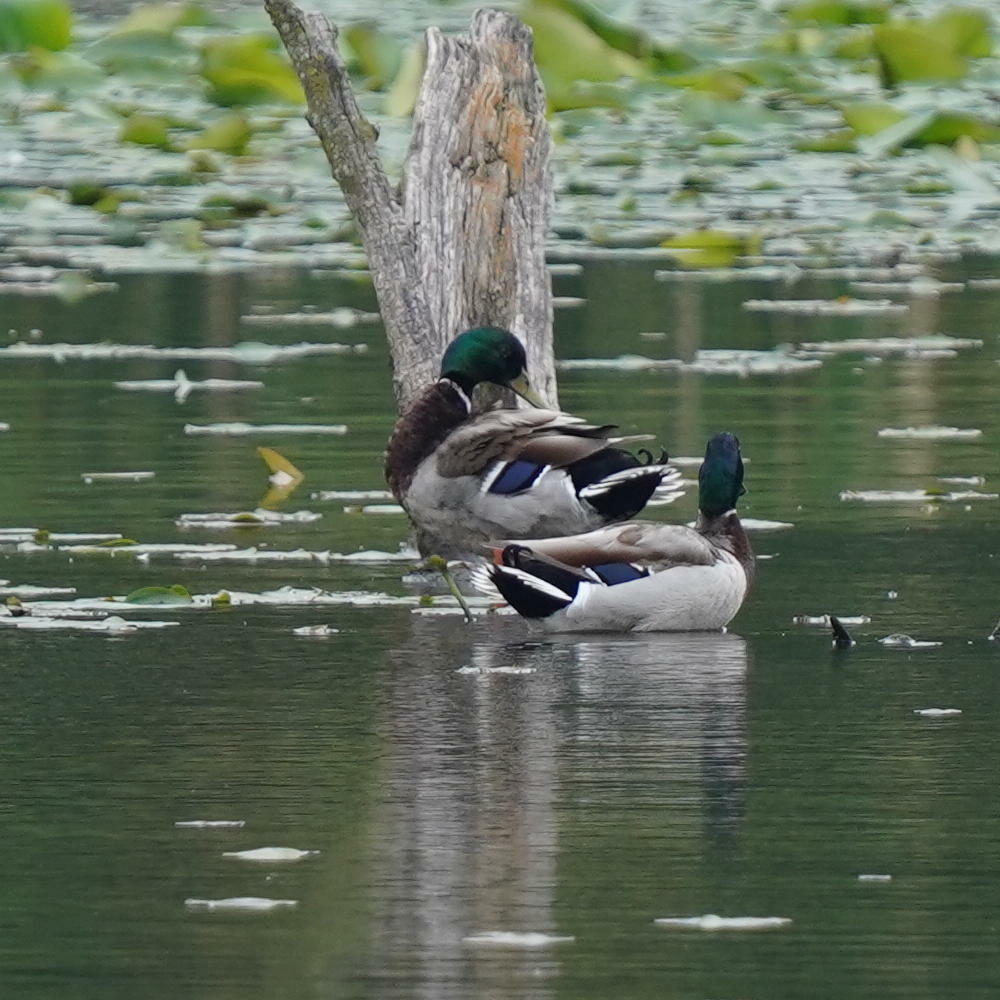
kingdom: Animalia
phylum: Chordata
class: Aves
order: Anseriformes
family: Anatidae
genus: Anas
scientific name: Anas platyrhynchos
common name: Mallard
